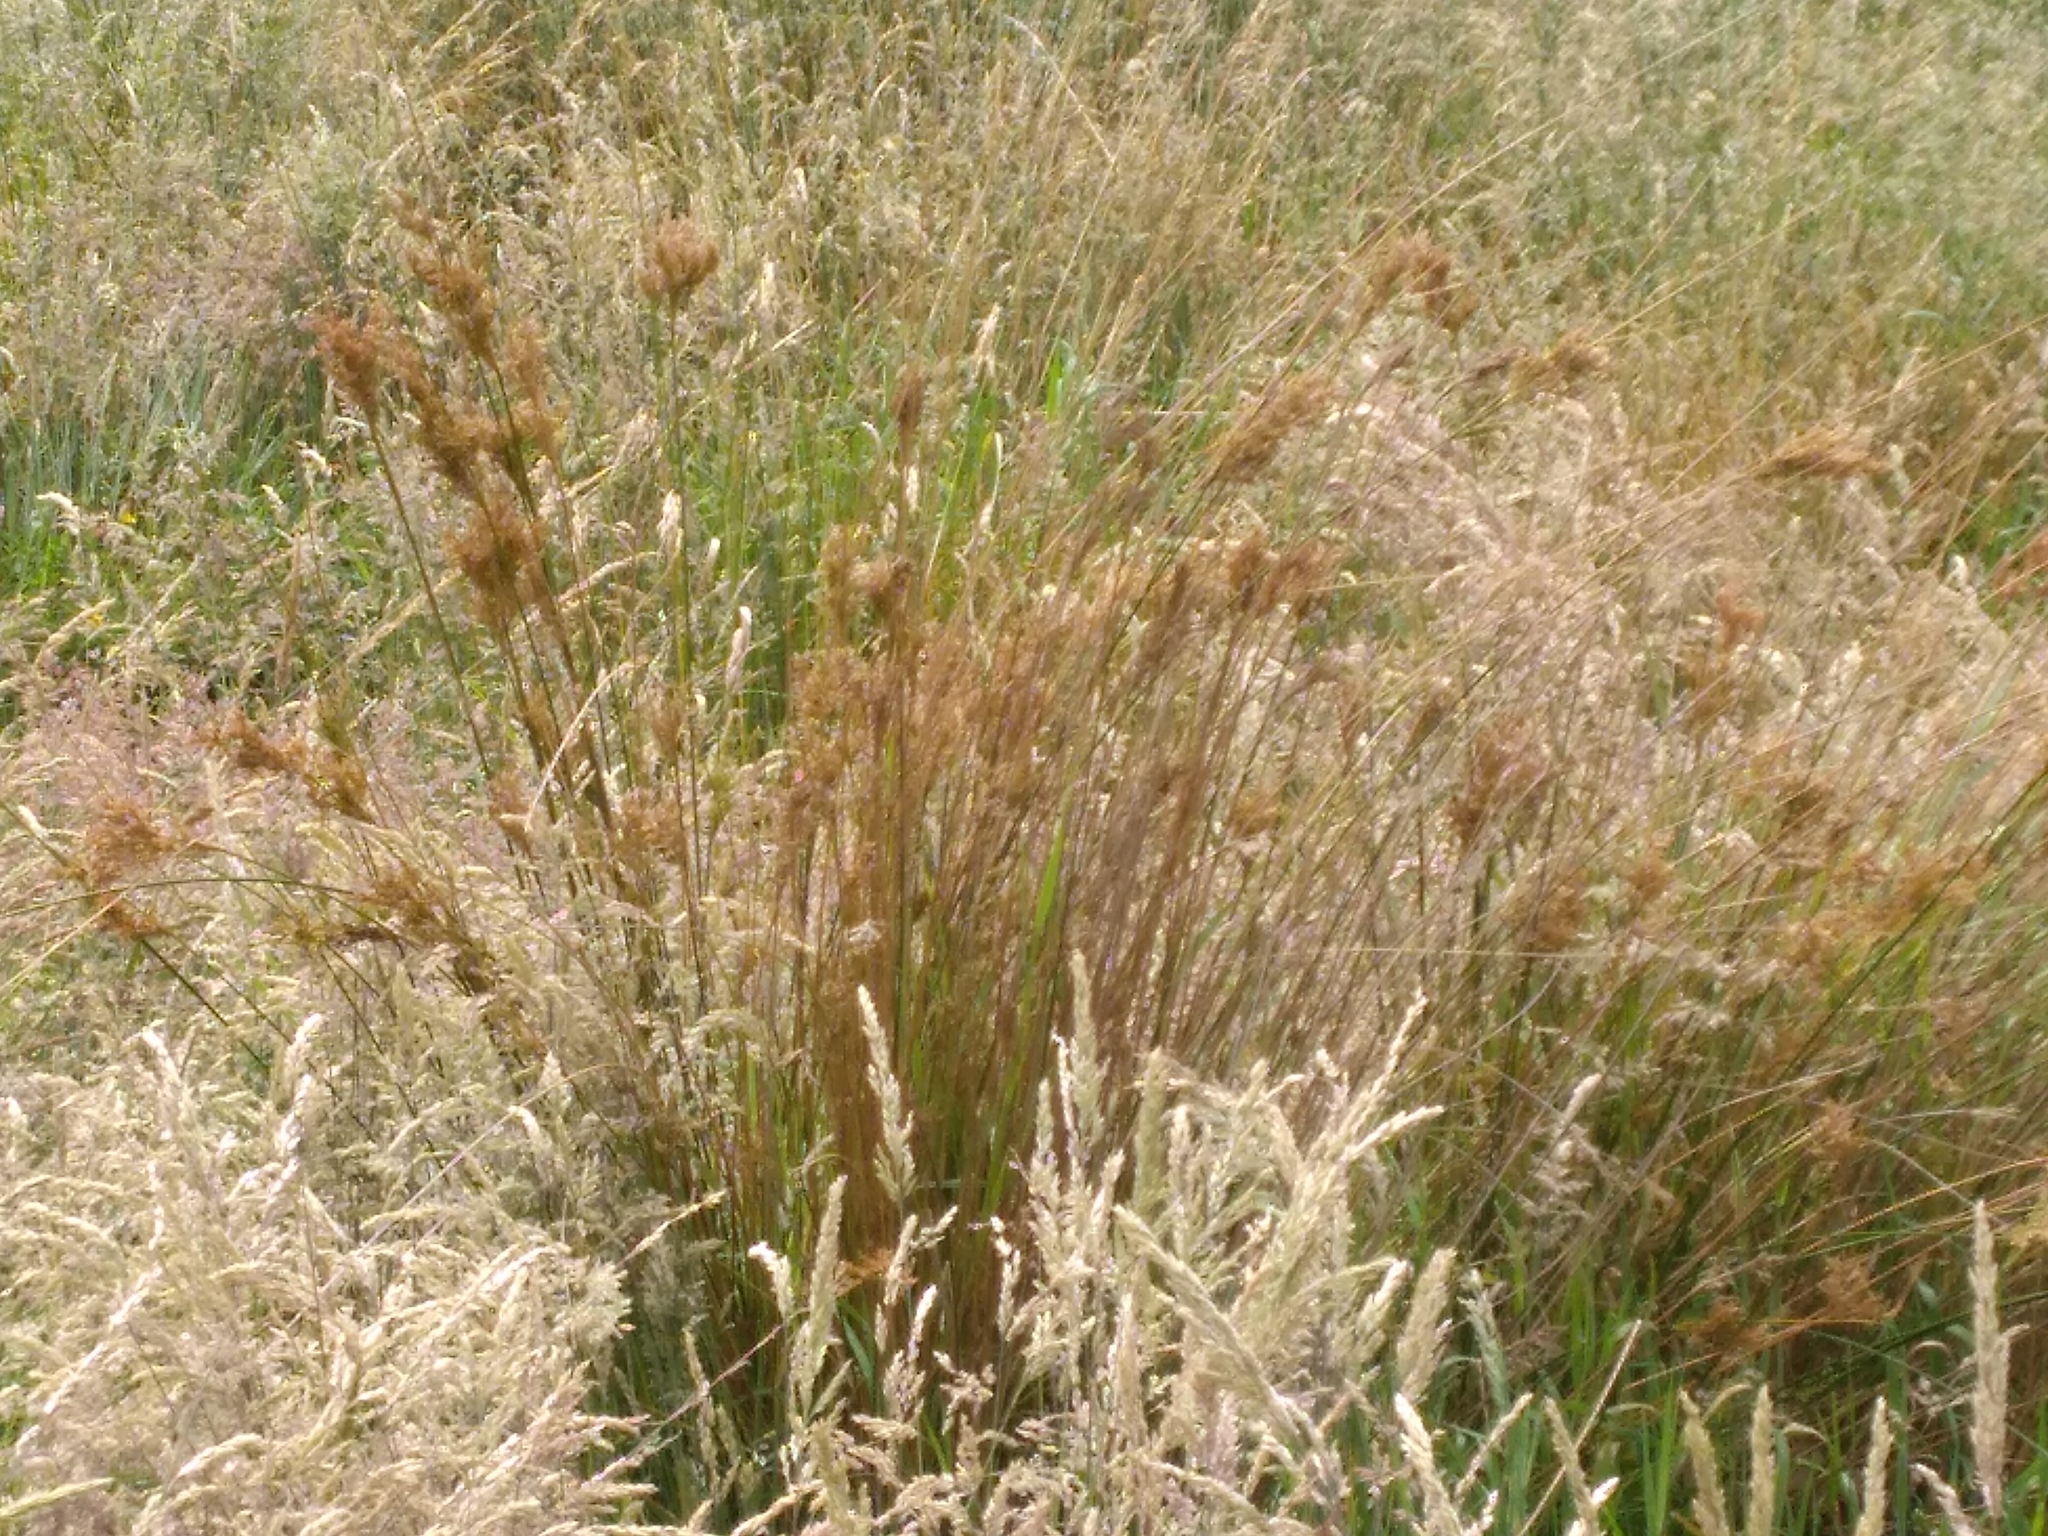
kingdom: Plantae
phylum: Tracheophyta
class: Liliopsida
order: Poales
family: Juncaceae
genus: Juncus
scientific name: Juncus sarophorus
